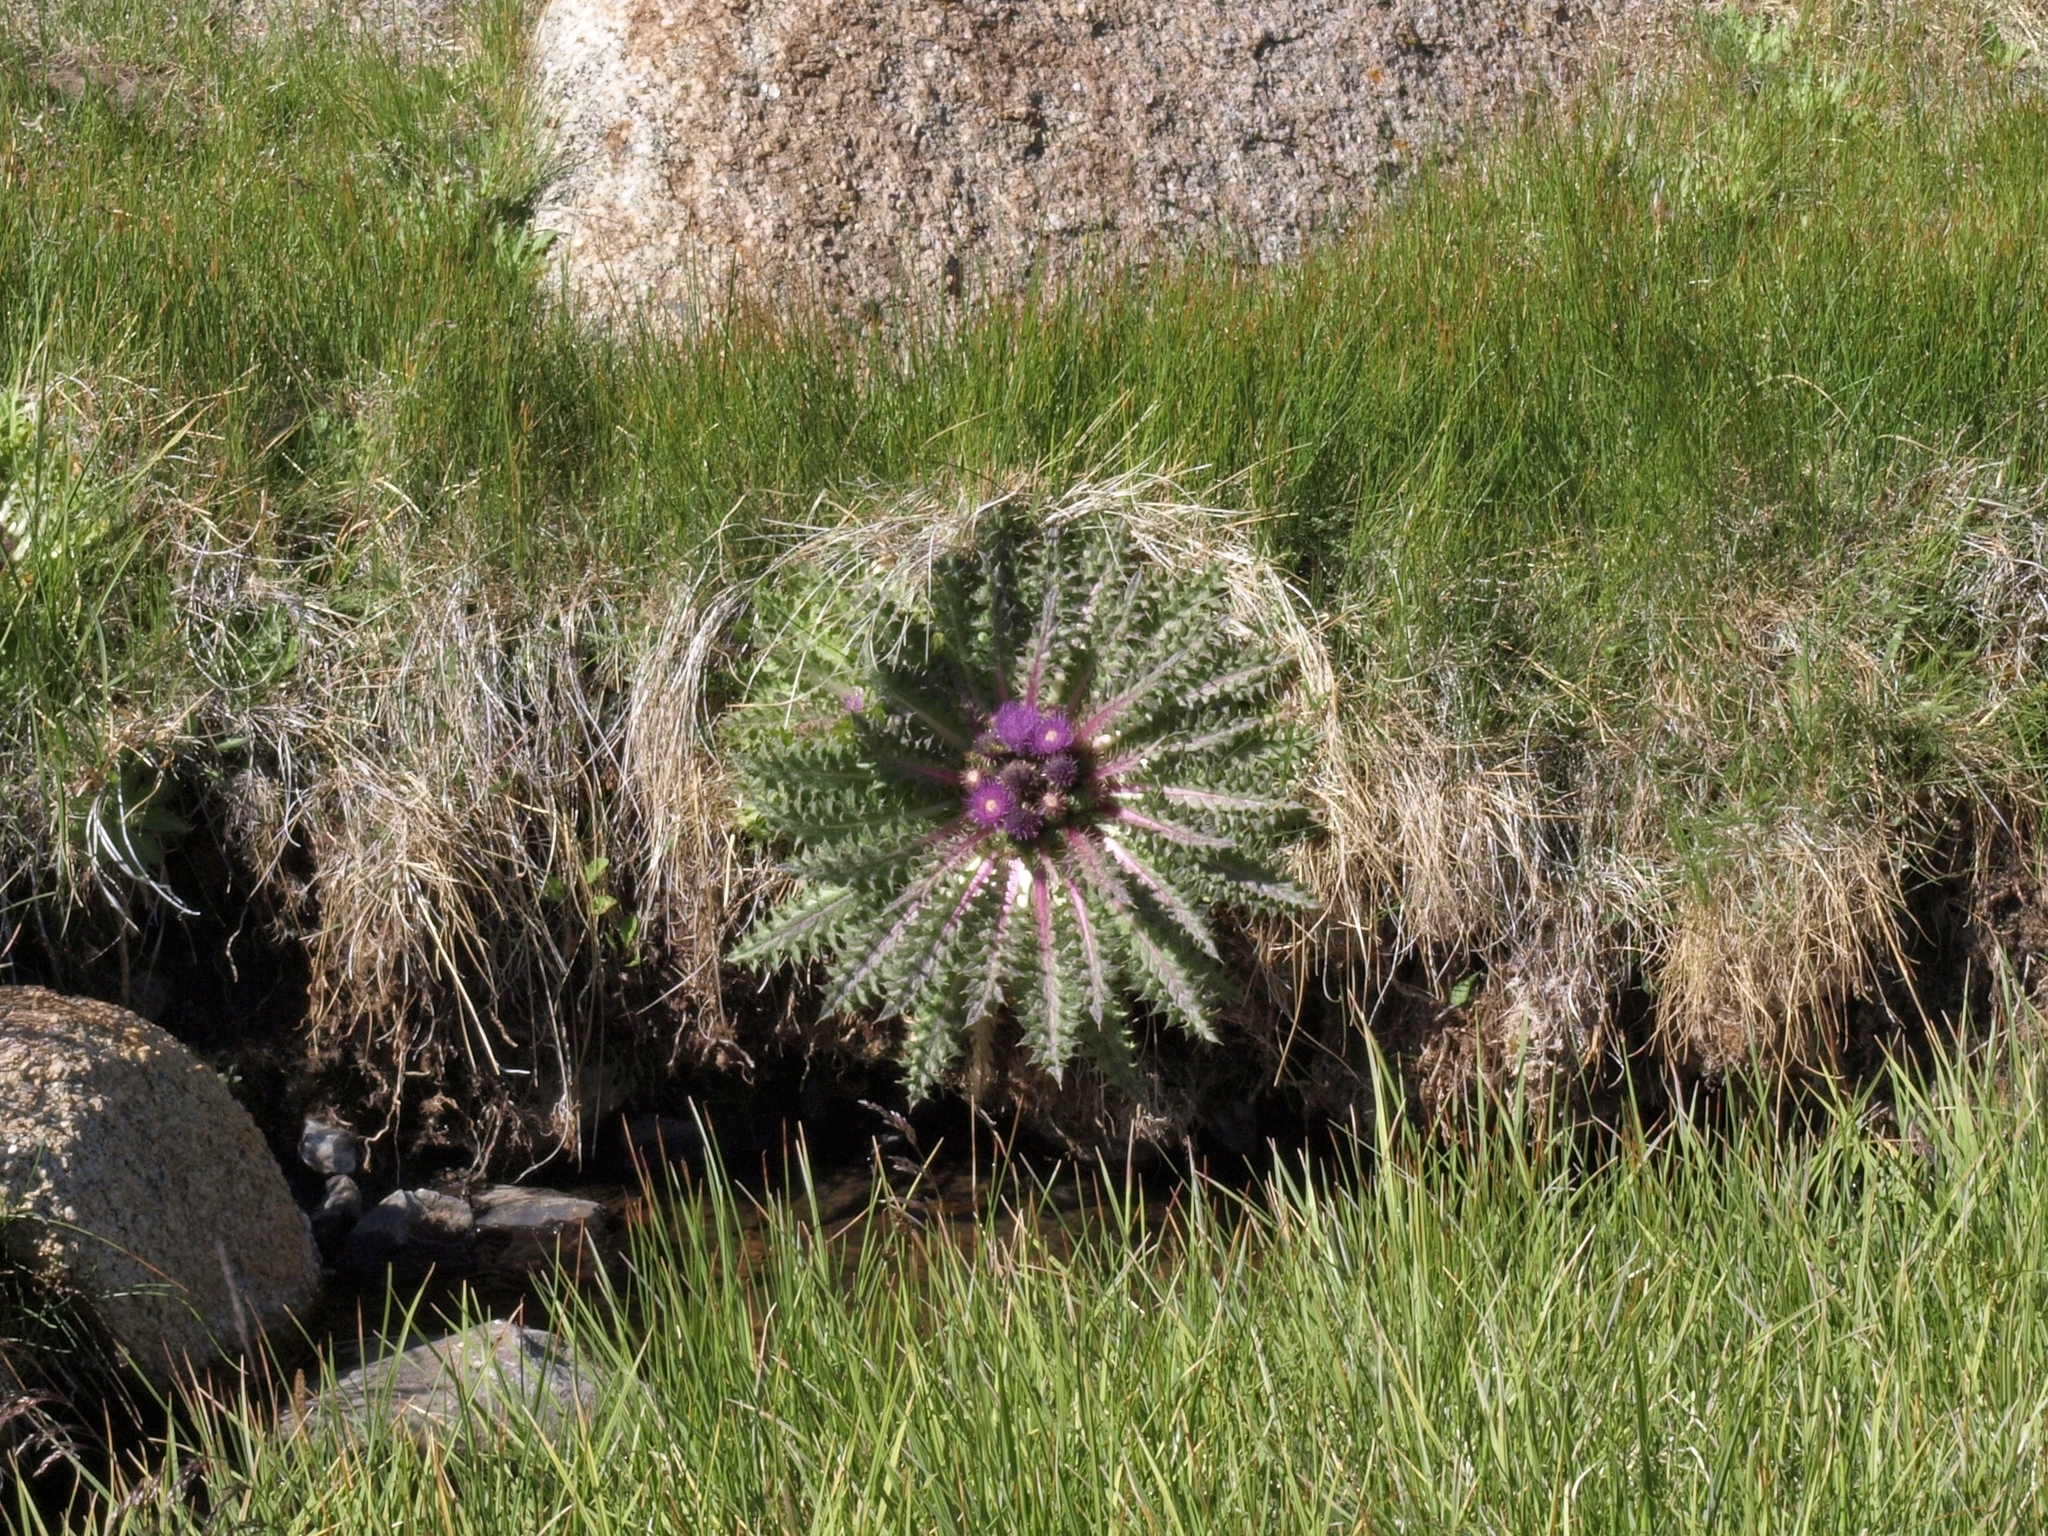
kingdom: Plantae
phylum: Tracheophyta
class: Magnoliopsida
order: Asterales
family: Asteraceae
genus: Cirsium
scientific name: Cirsium congdonii
